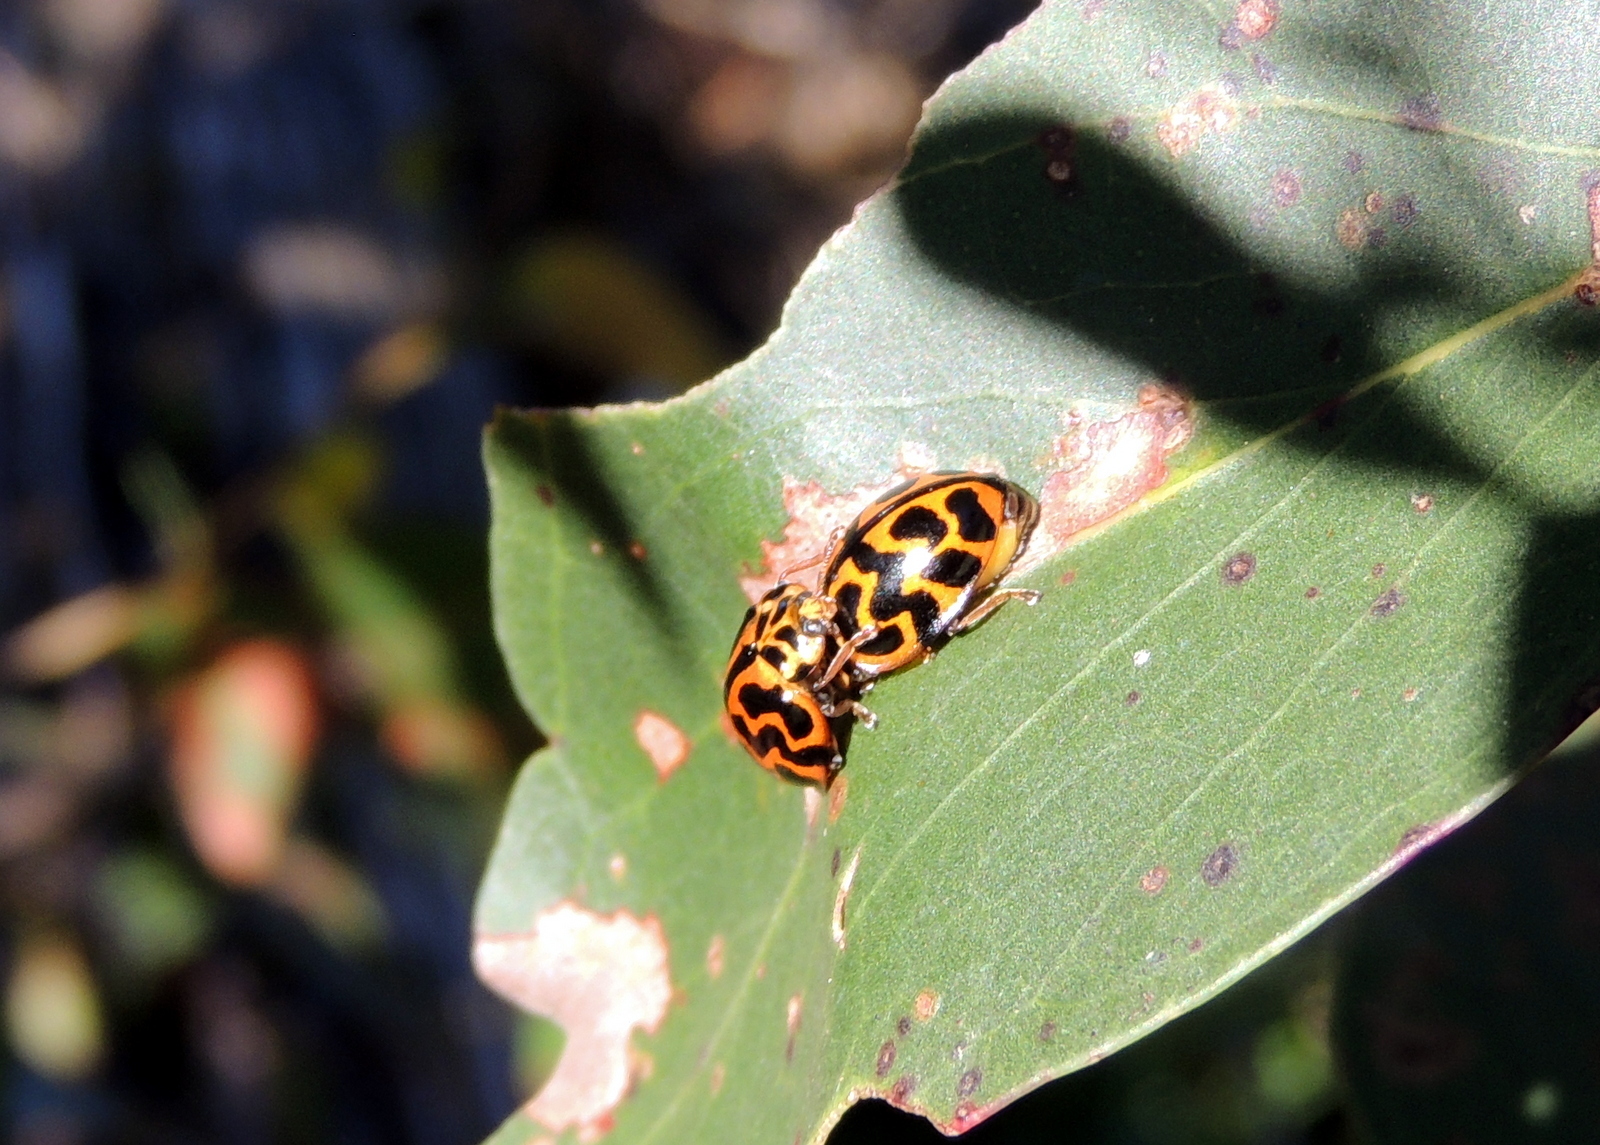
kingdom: Animalia
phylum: Arthropoda
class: Insecta
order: Coleoptera
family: Coccinellidae
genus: Cleobora
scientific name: Cleobora
